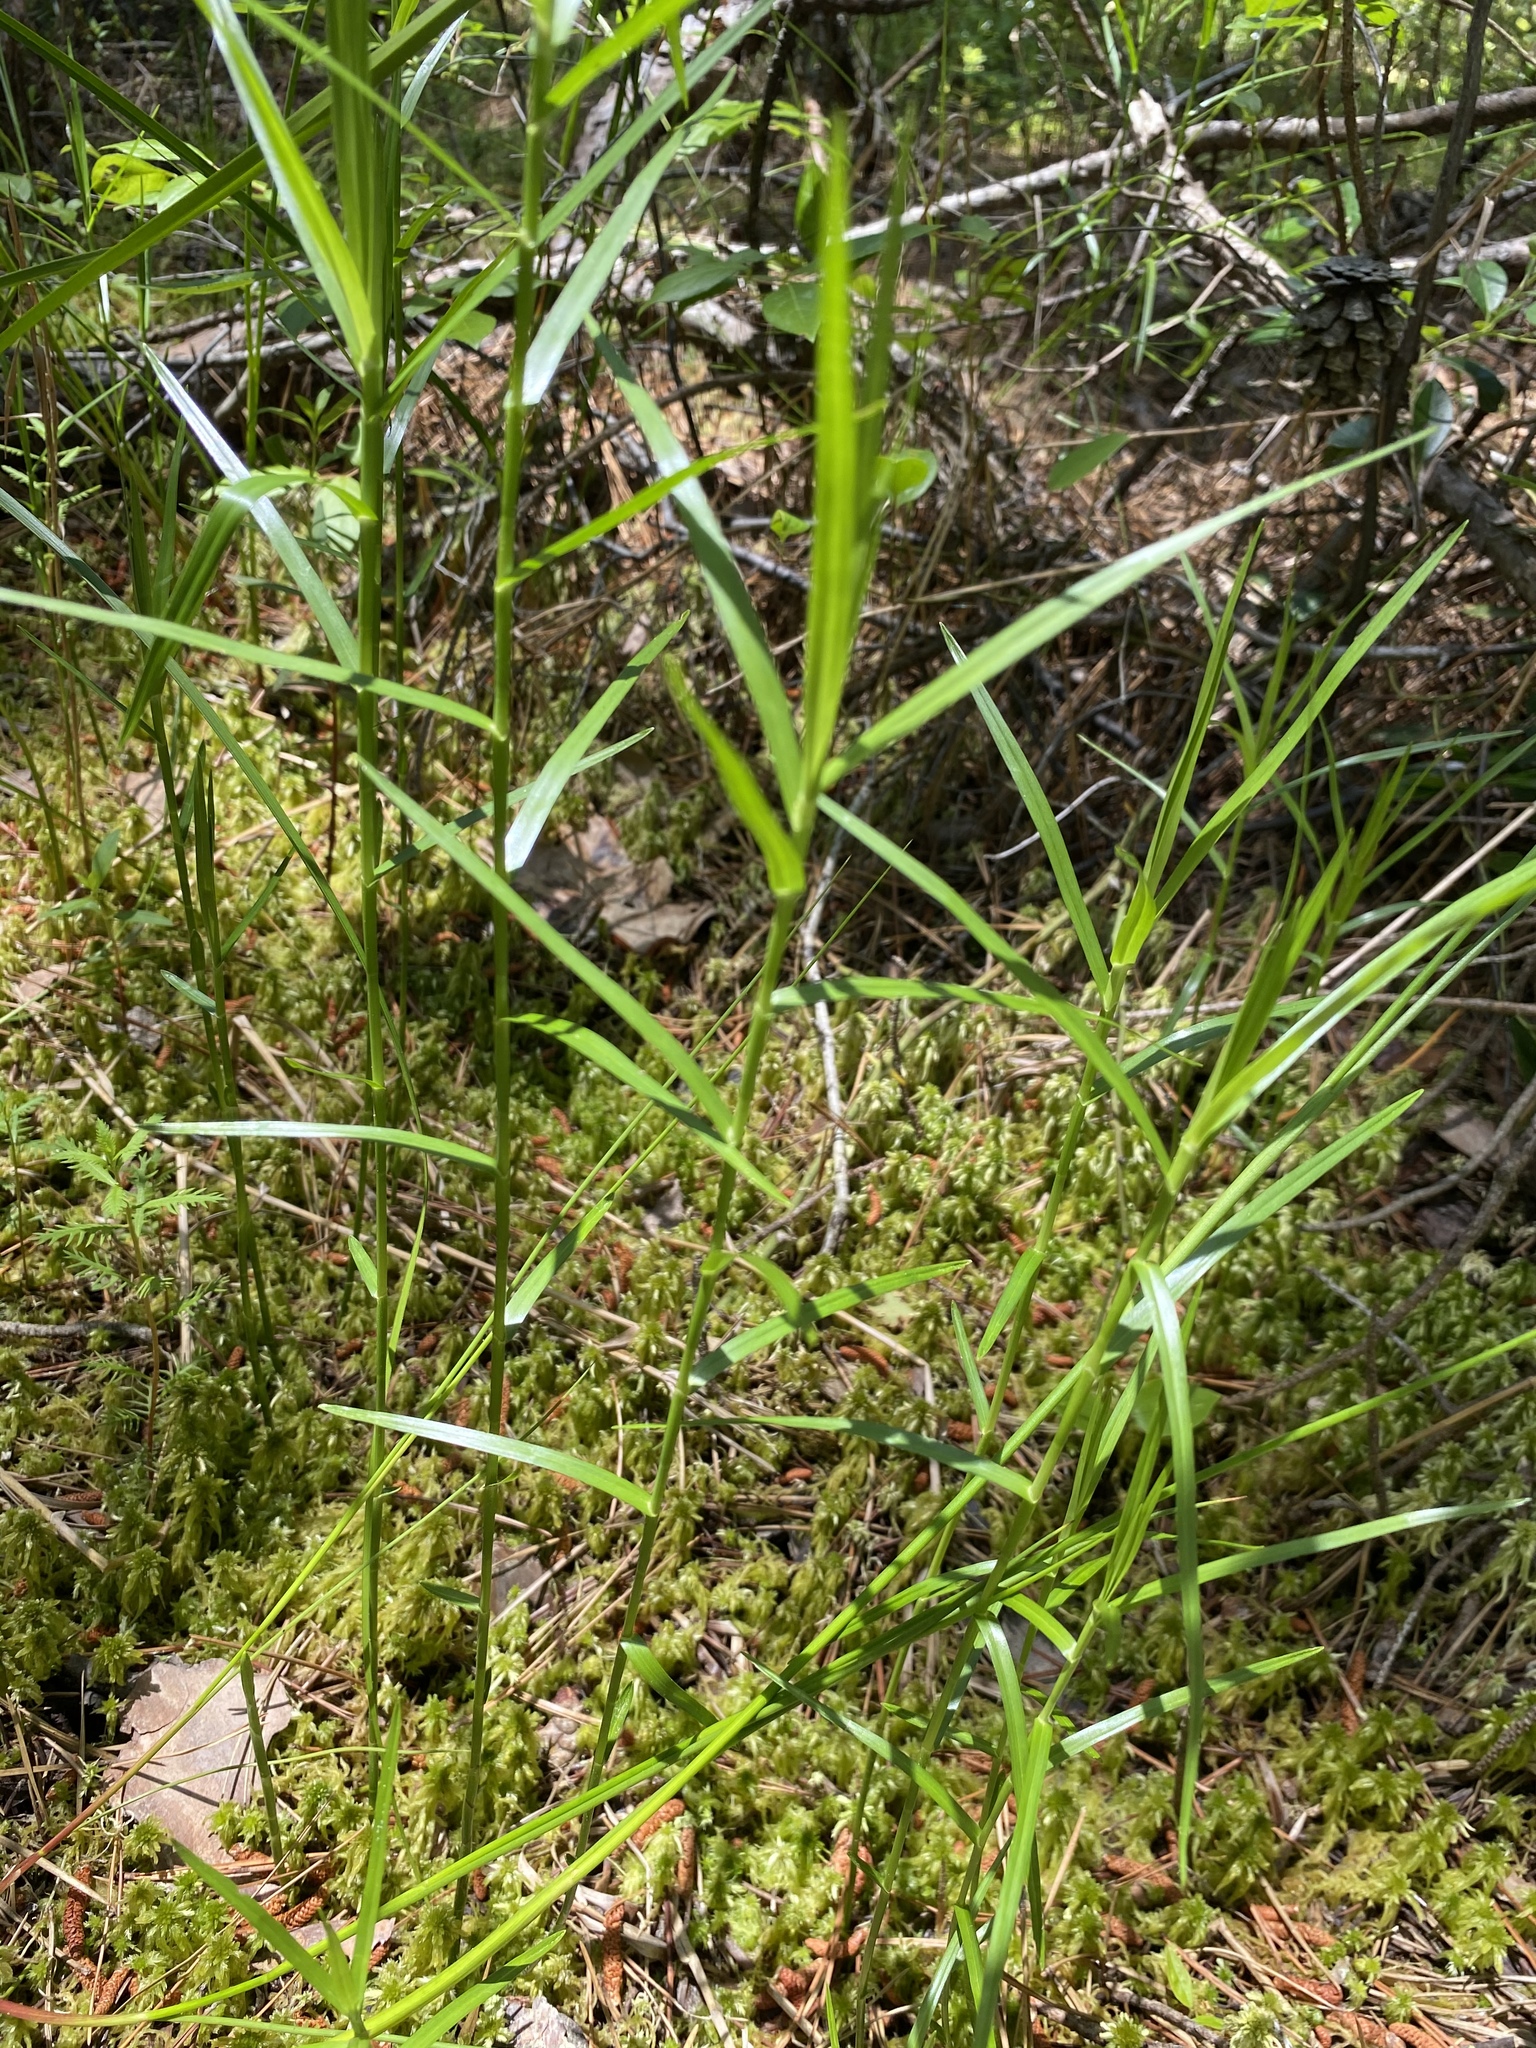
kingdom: Plantae
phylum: Tracheophyta
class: Liliopsida
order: Poales
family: Cyperaceae
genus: Dulichium
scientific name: Dulichium arundinaceum
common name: Three-way sedge
